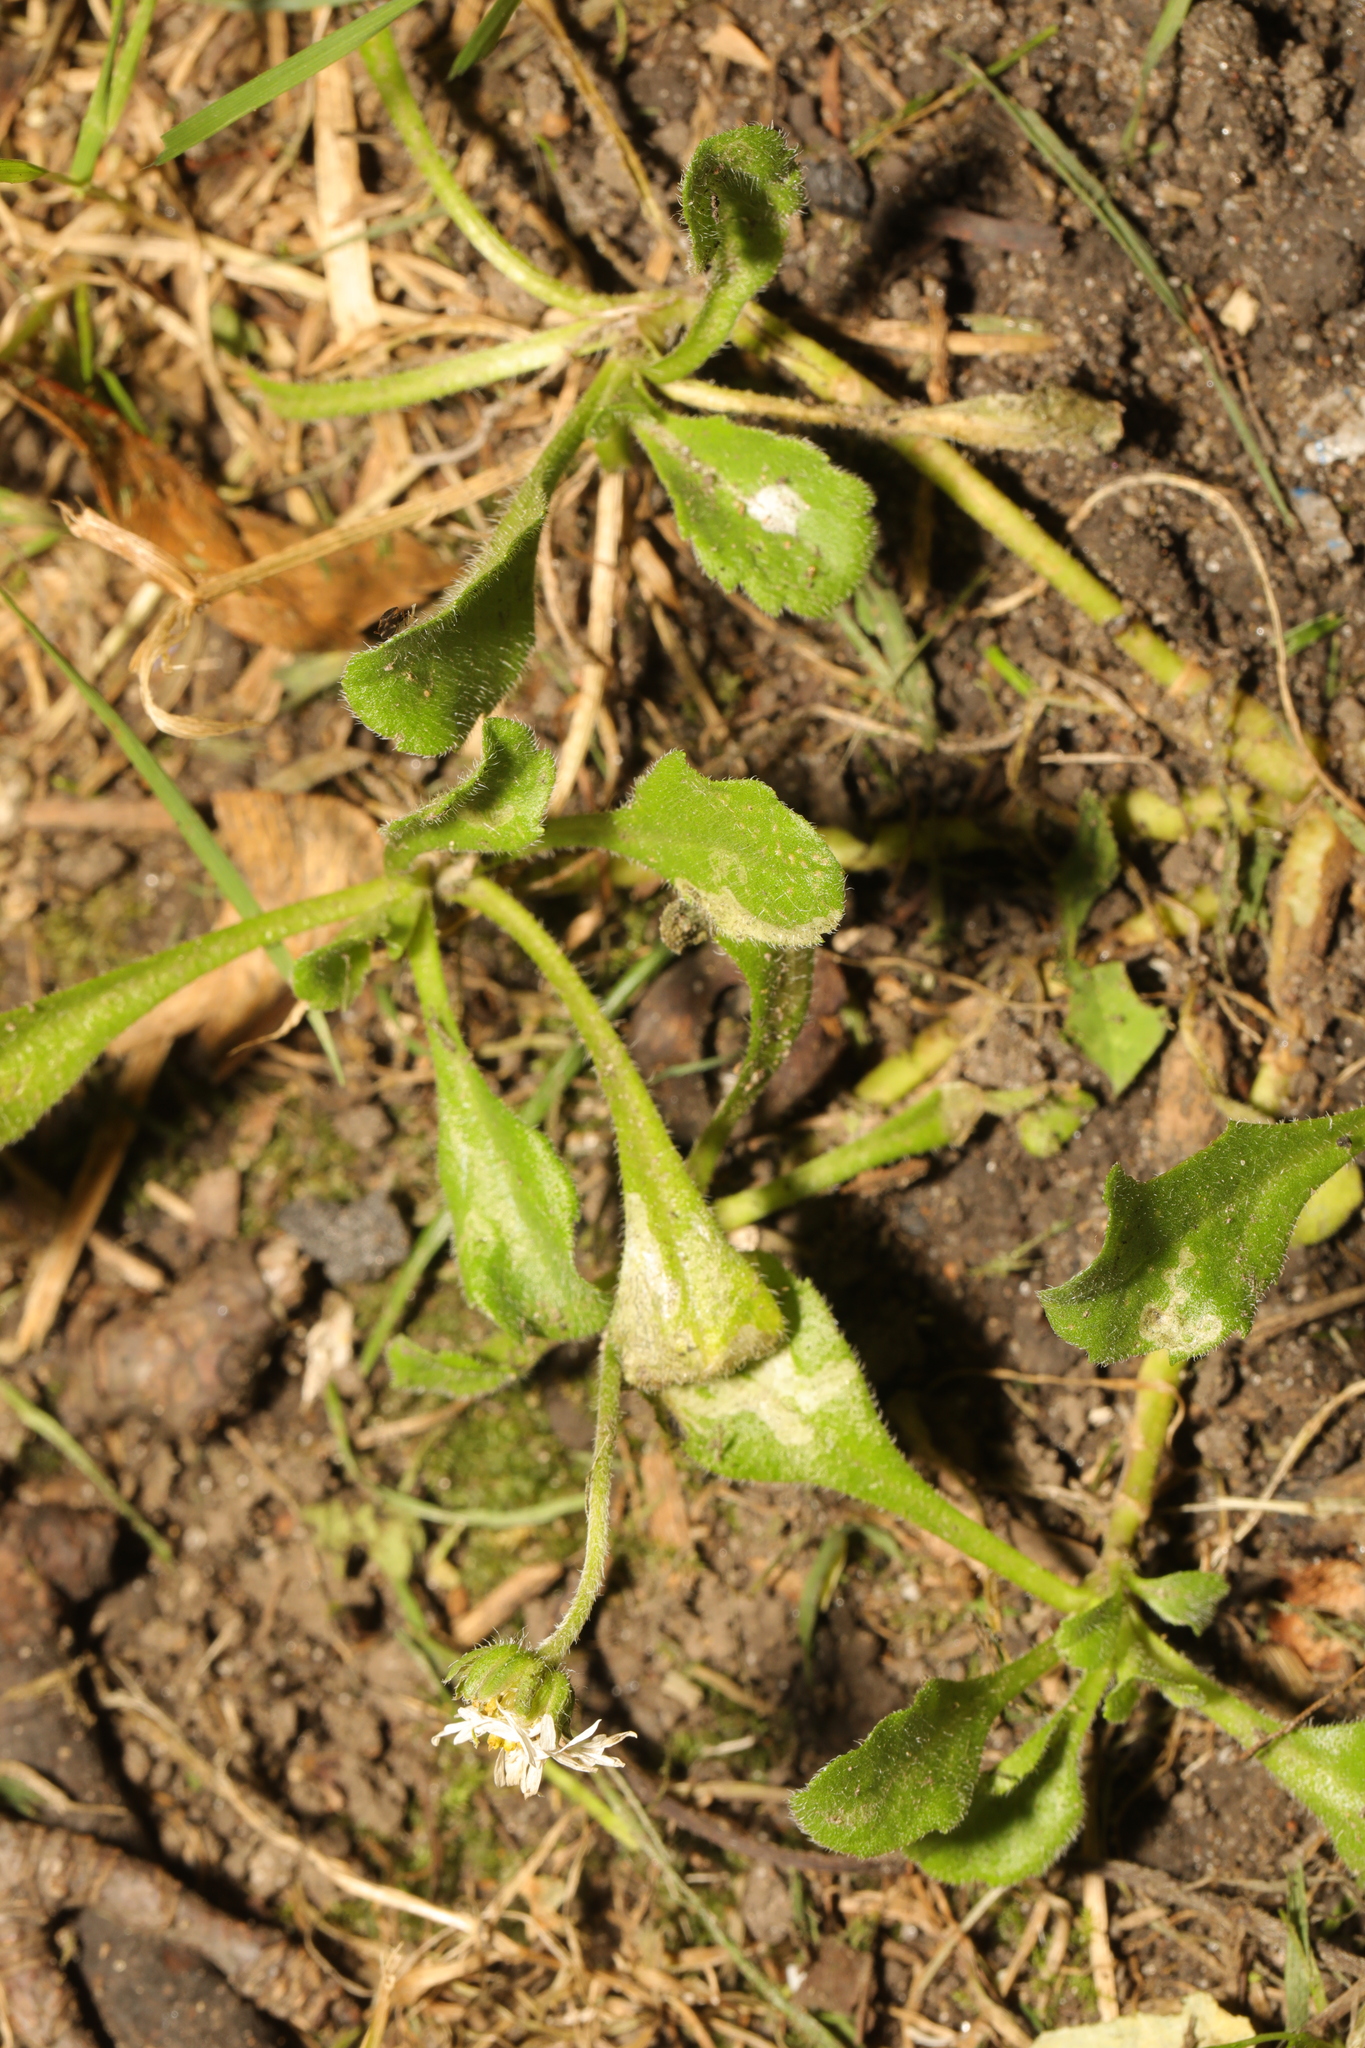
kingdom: Plantae
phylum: Tracheophyta
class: Magnoliopsida
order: Asterales
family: Asteraceae
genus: Bellis
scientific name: Bellis perennis
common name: Lawndaisy
